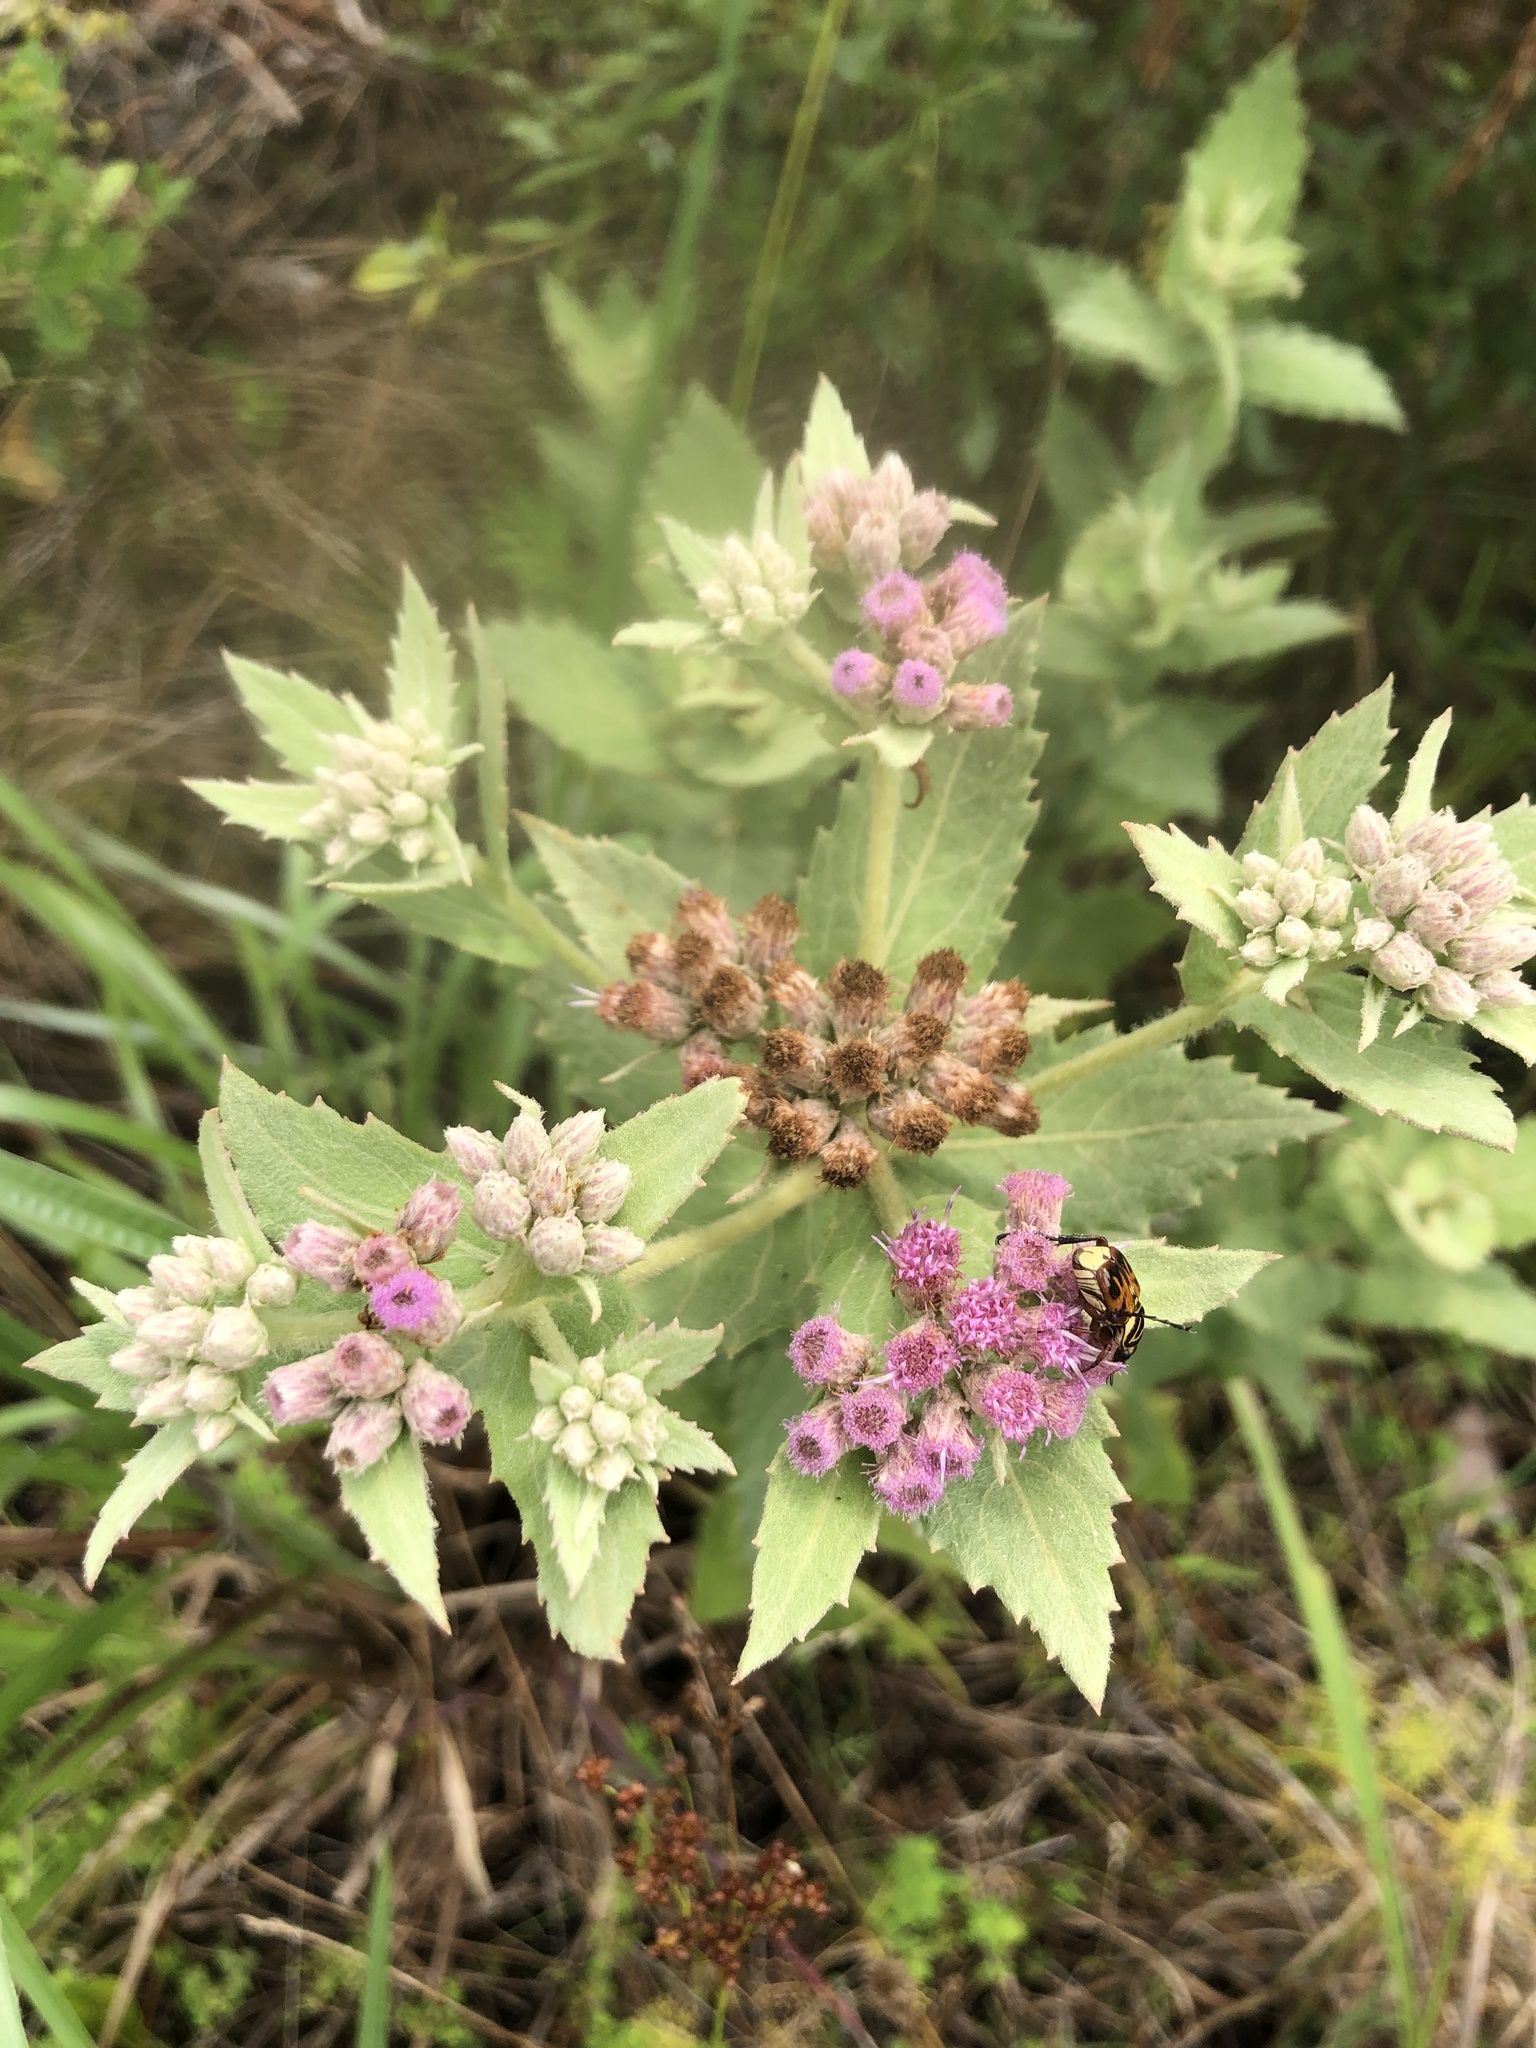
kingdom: Plantae
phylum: Tracheophyta
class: Magnoliopsida
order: Asterales
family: Asteraceae
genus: Pluchea
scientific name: Pluchea baccharis
